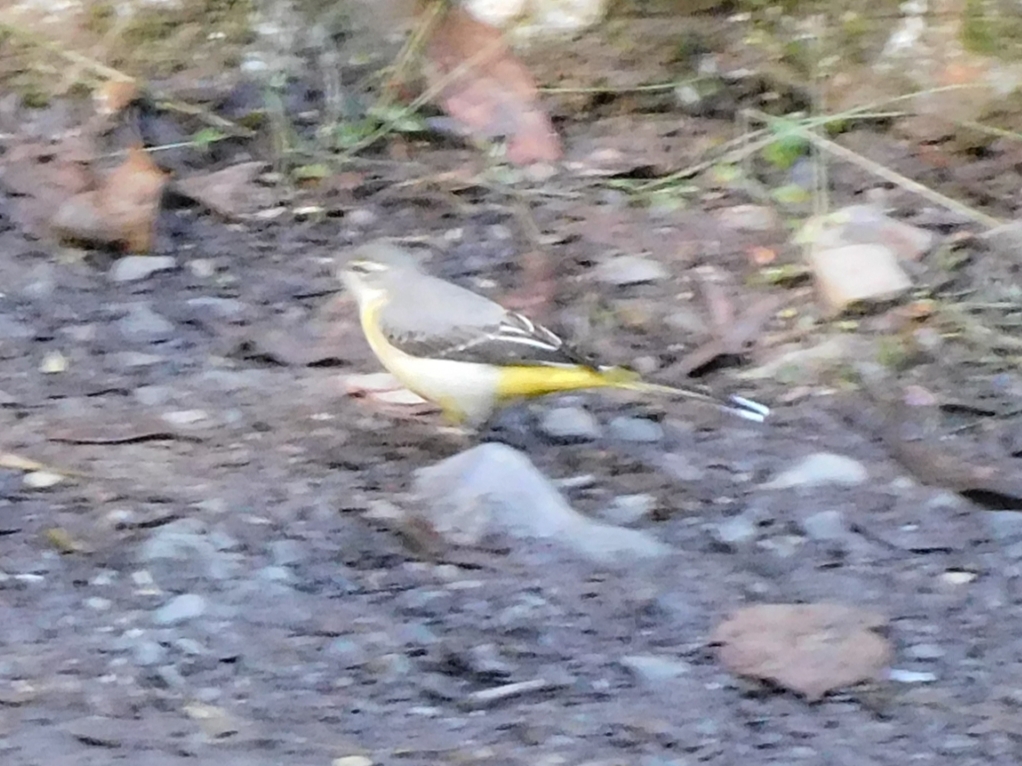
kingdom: Animalia
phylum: Chordata
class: Aves
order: Passeriformes
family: Motacillidae
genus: Motacilla
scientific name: Motacilla cinerea
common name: Grey wagtail
